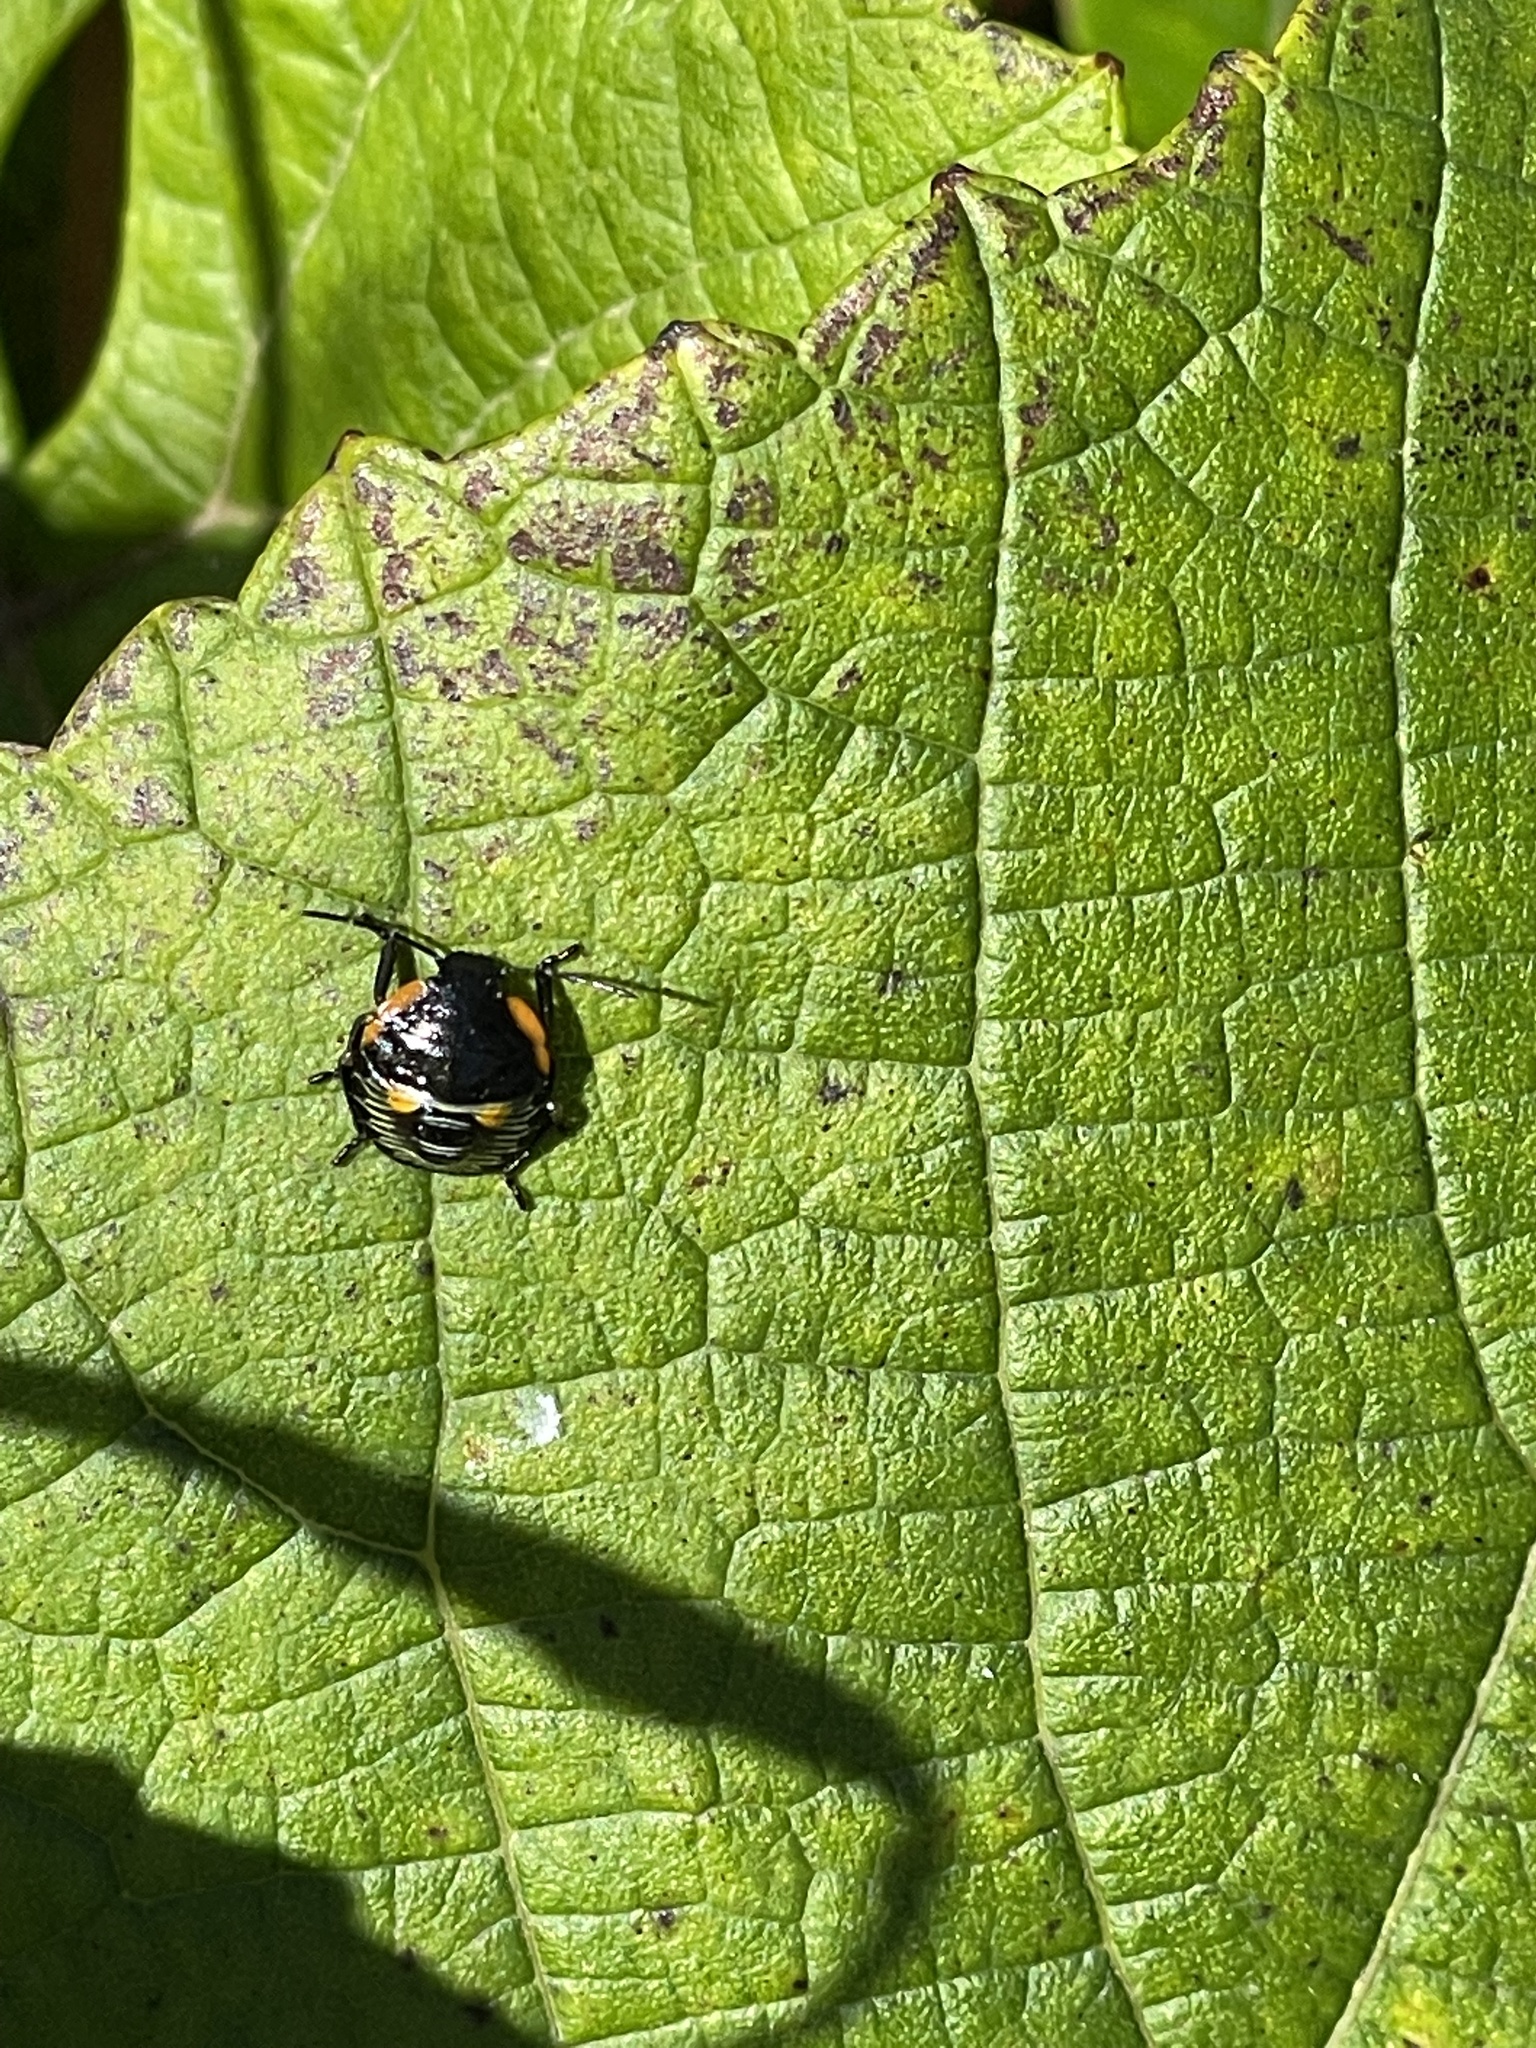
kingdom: Animalia
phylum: Arthropoda
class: Insecta
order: Hemiptera
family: Pentatomidae
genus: Chinavia
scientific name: Chinavia hilaris
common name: Green stink bug
